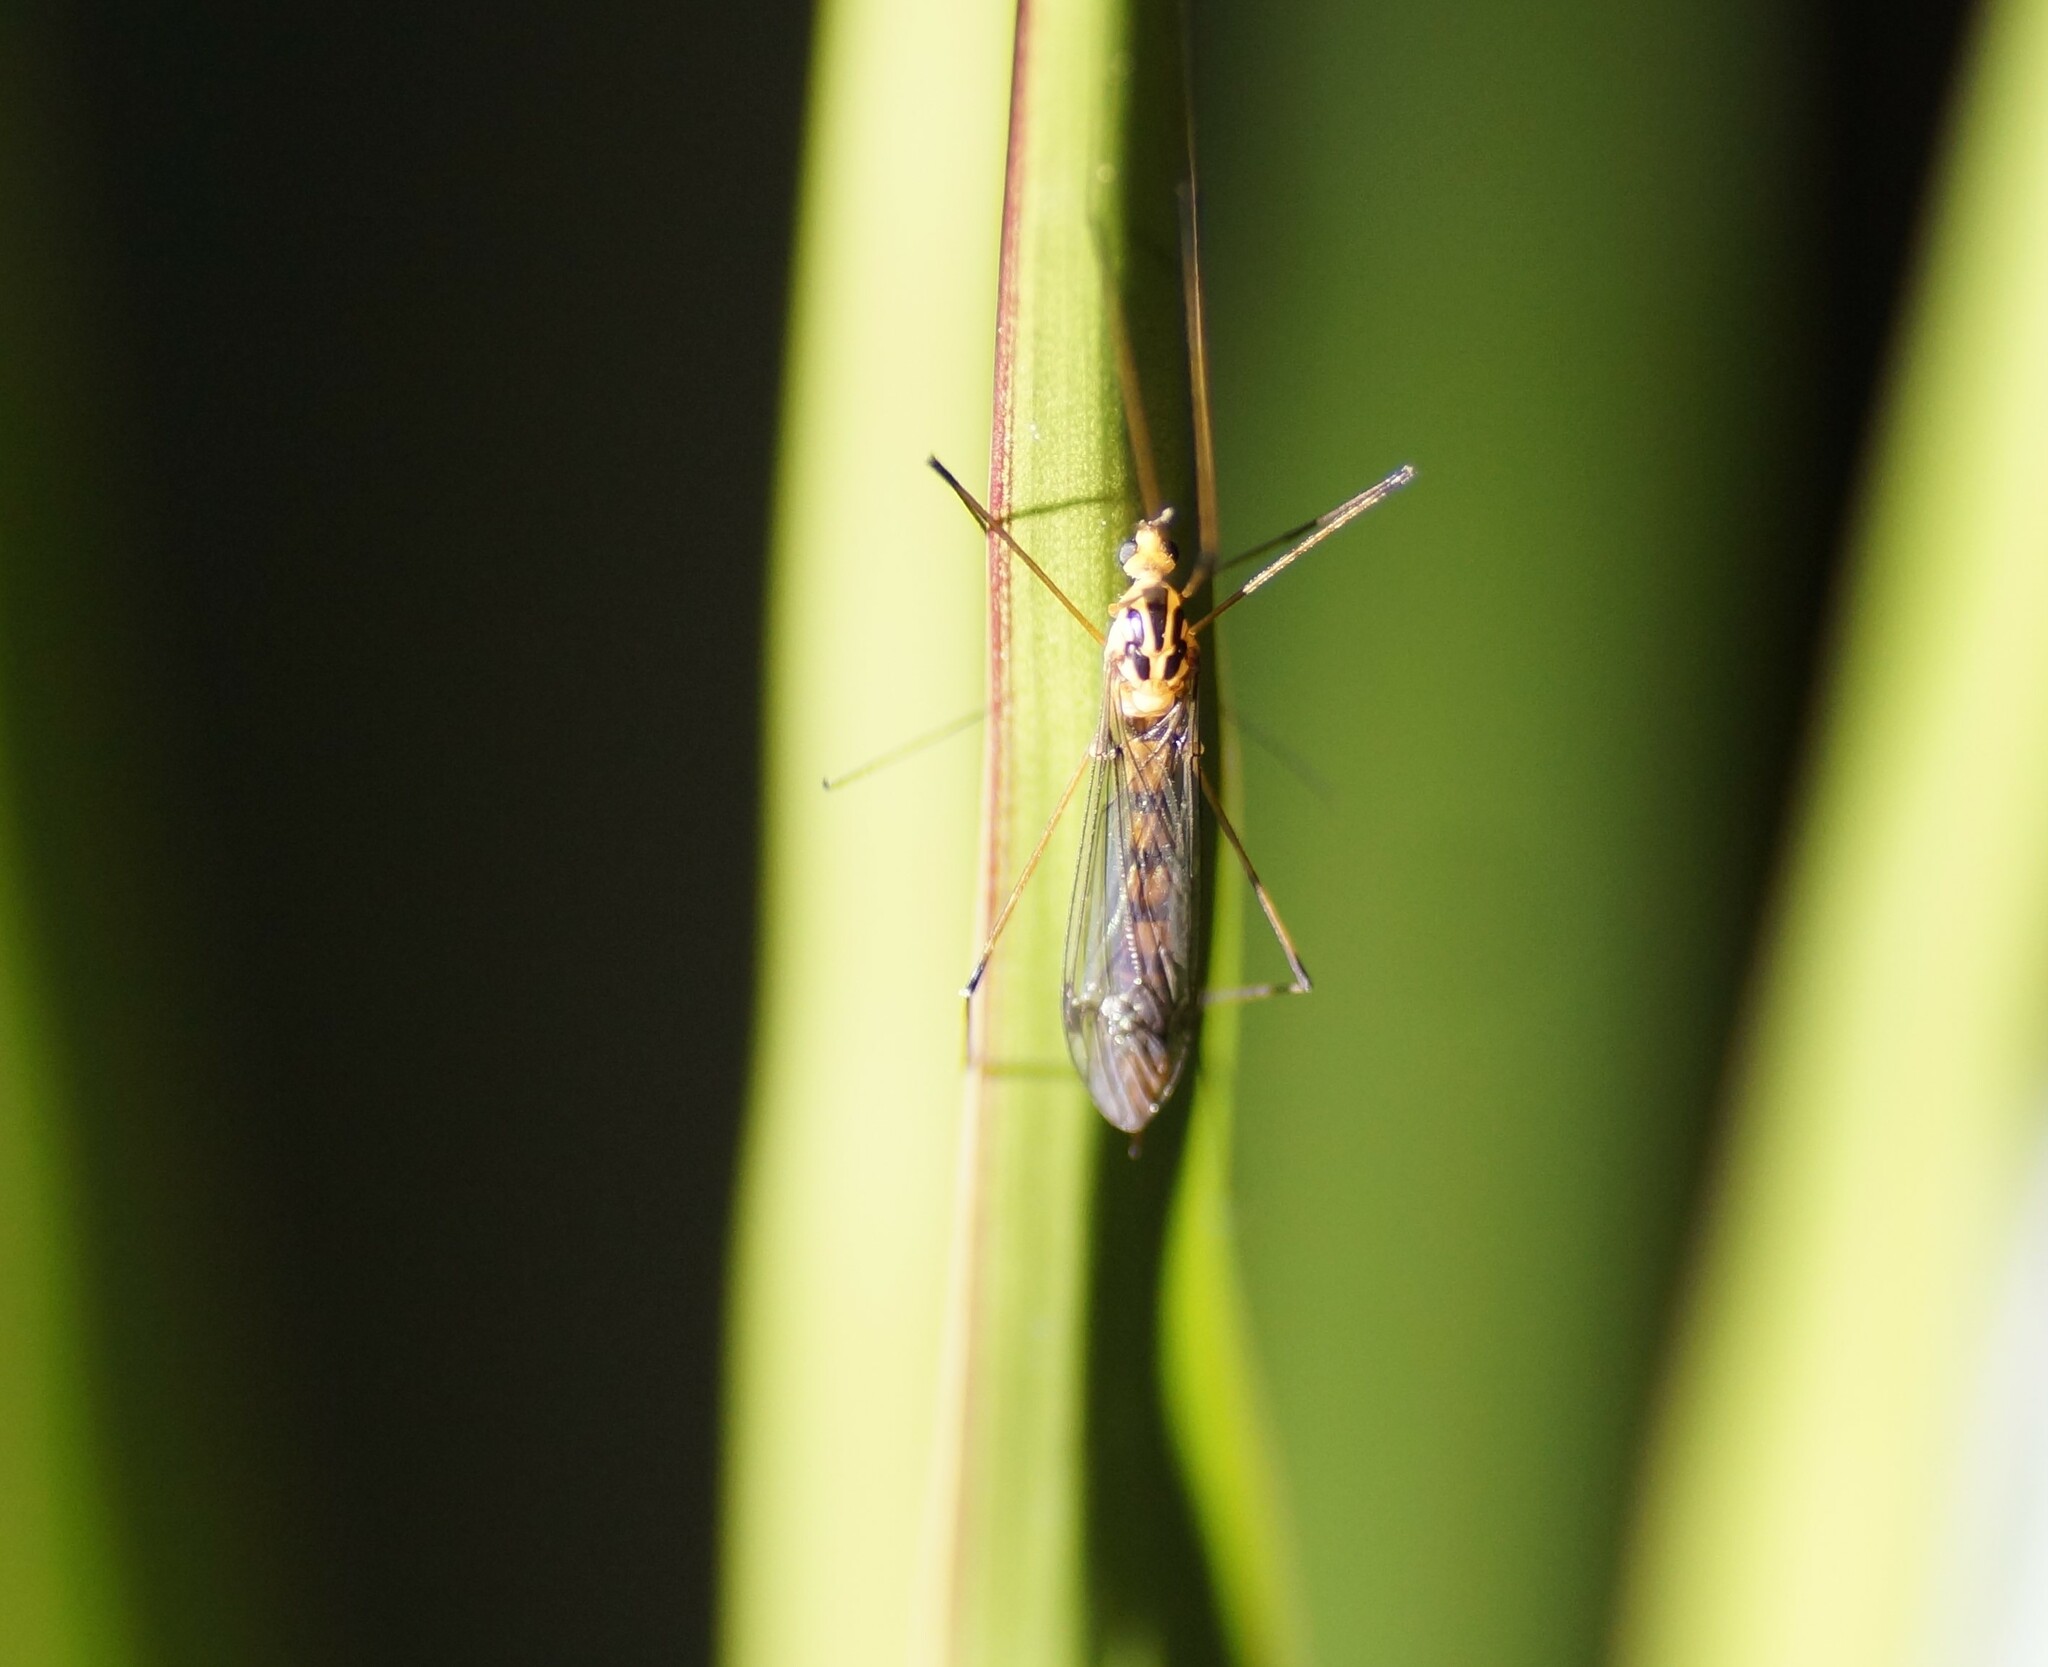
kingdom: Animalia
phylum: Arthropoda
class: Insecta
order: Diptera
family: Tipulidae
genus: Nephrotoma
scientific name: Nephrotoma australasiae
